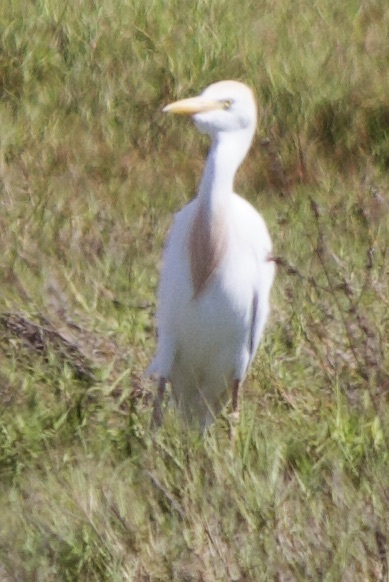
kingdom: Animalia
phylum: Chordata
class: Aves
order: Pelecaniformes
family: Ardeidae
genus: Bubulcus
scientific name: Bubulcus ibis
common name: Cattle egret
